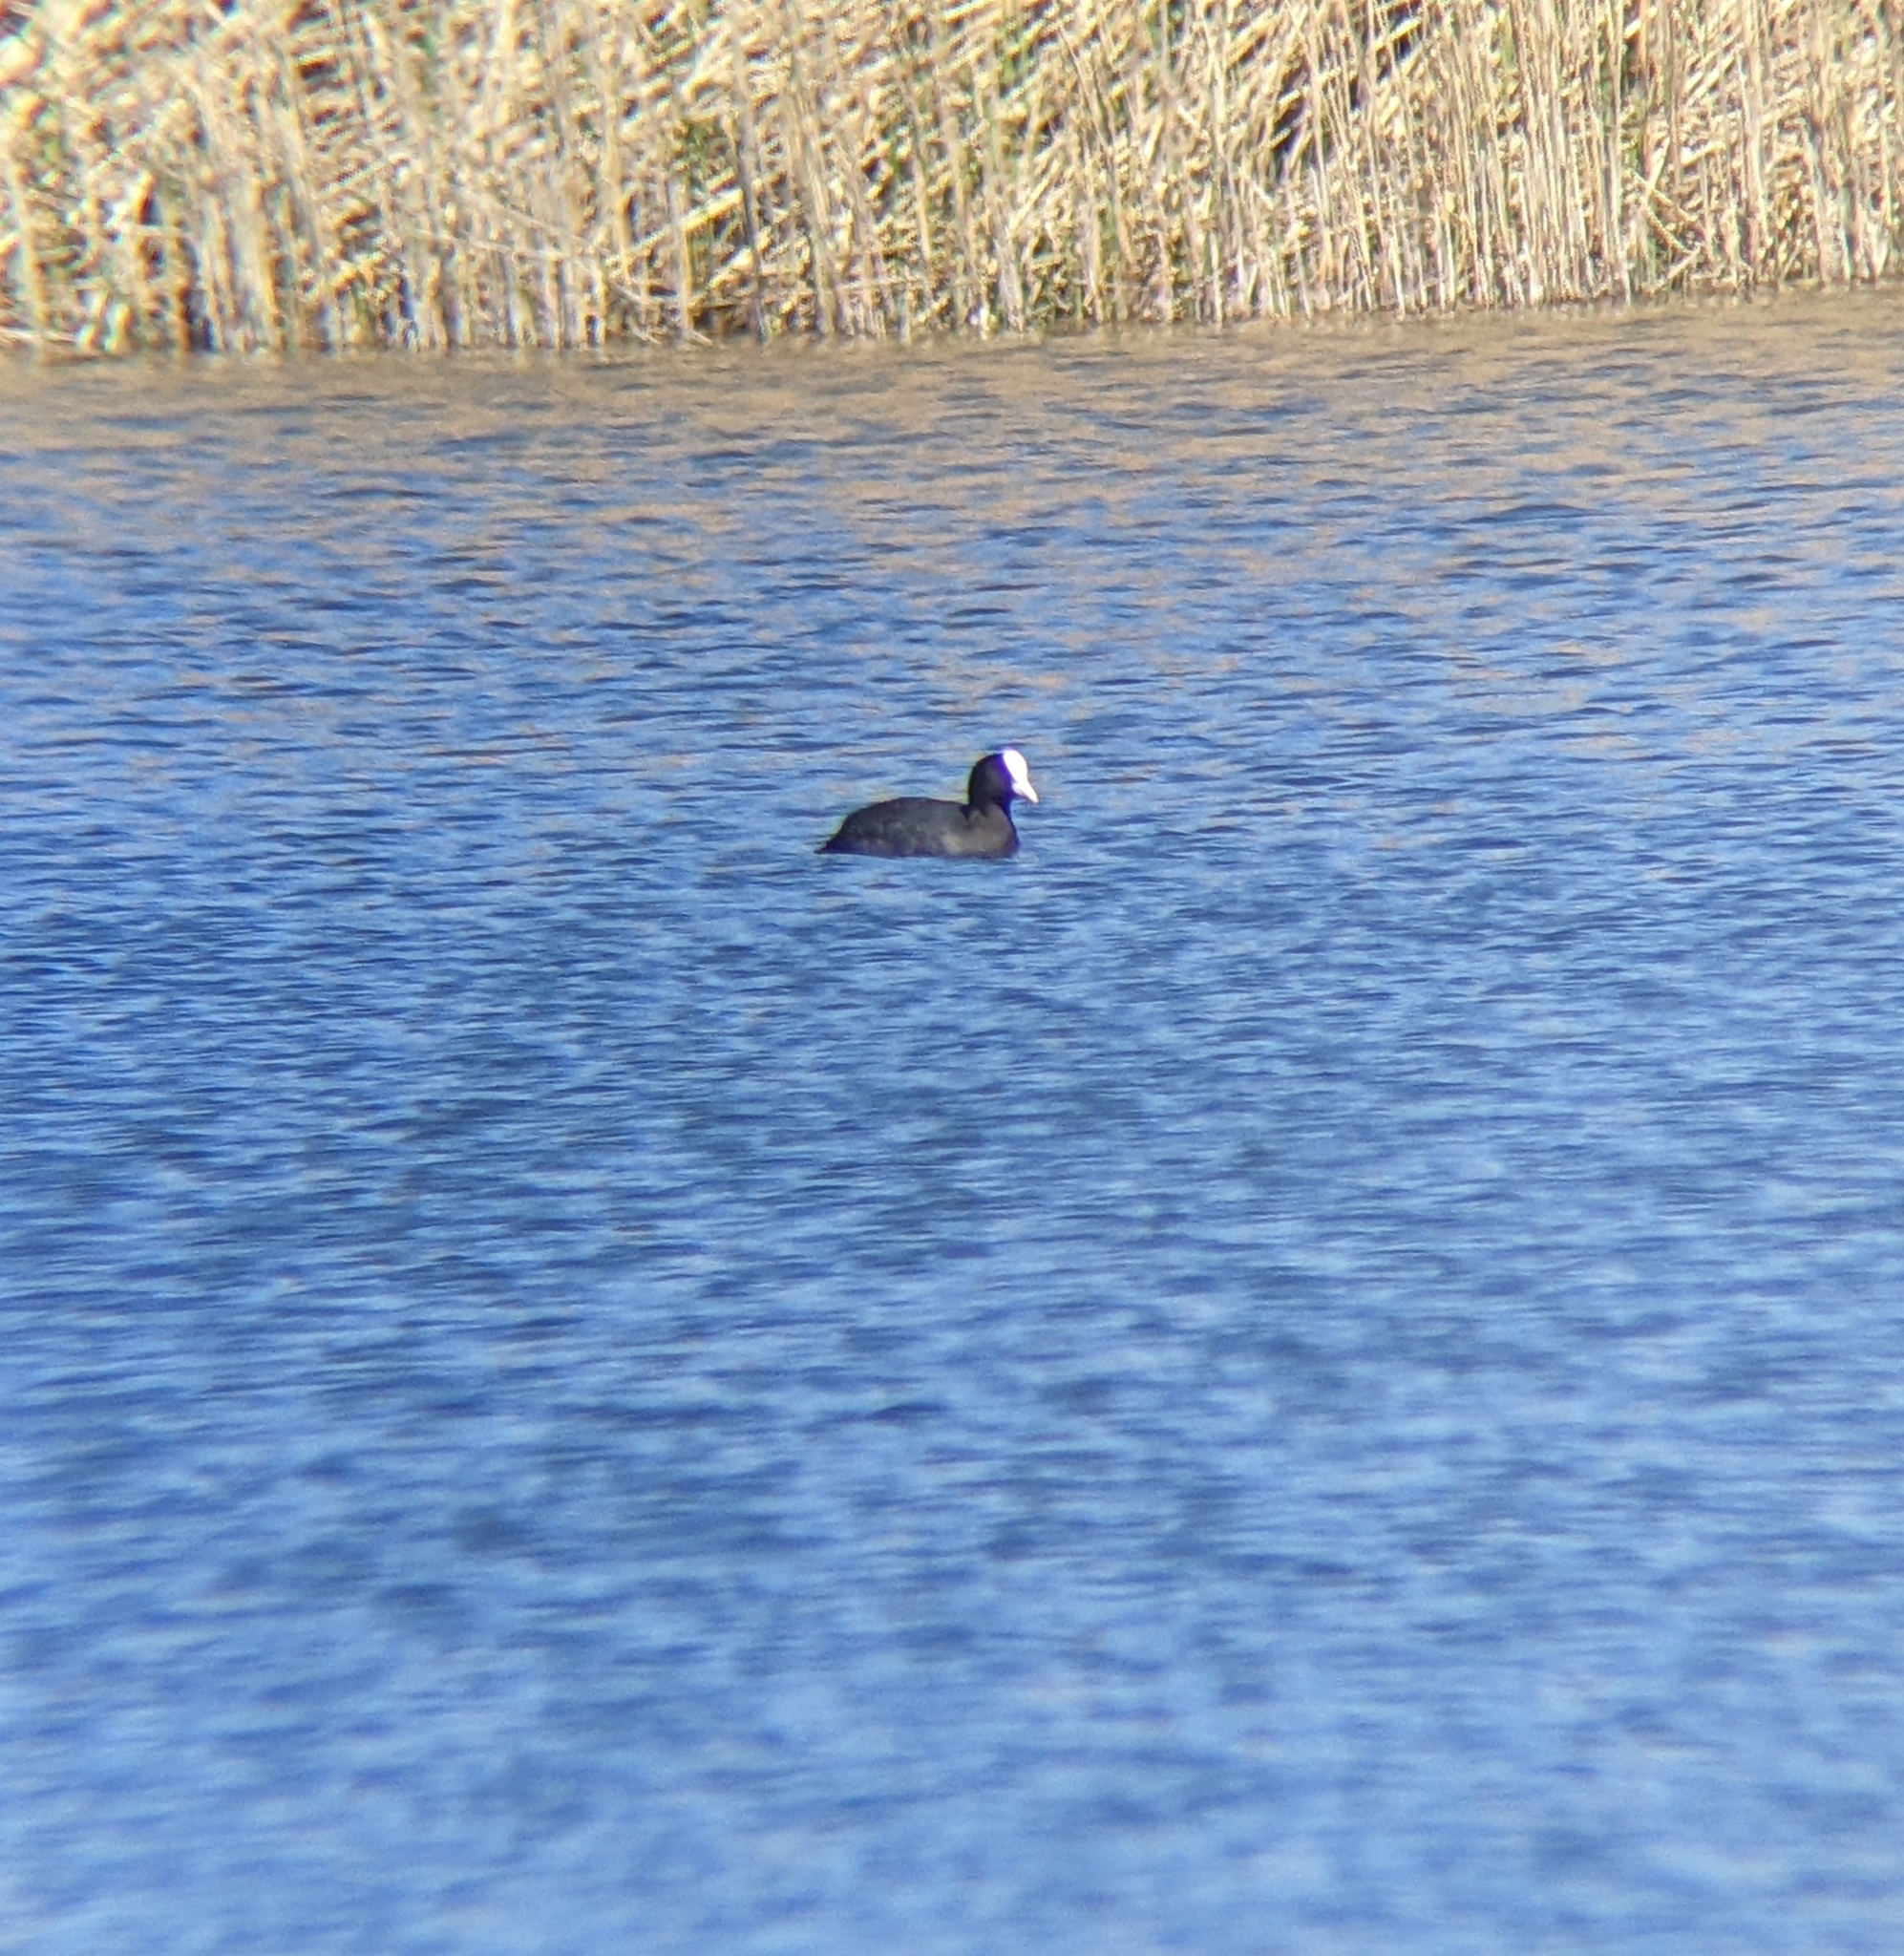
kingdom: Animalia
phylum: Chordata
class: Aves
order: Gruiformes
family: Rallidae
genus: Fulica
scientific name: Fulica atra
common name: Eurasian coot
